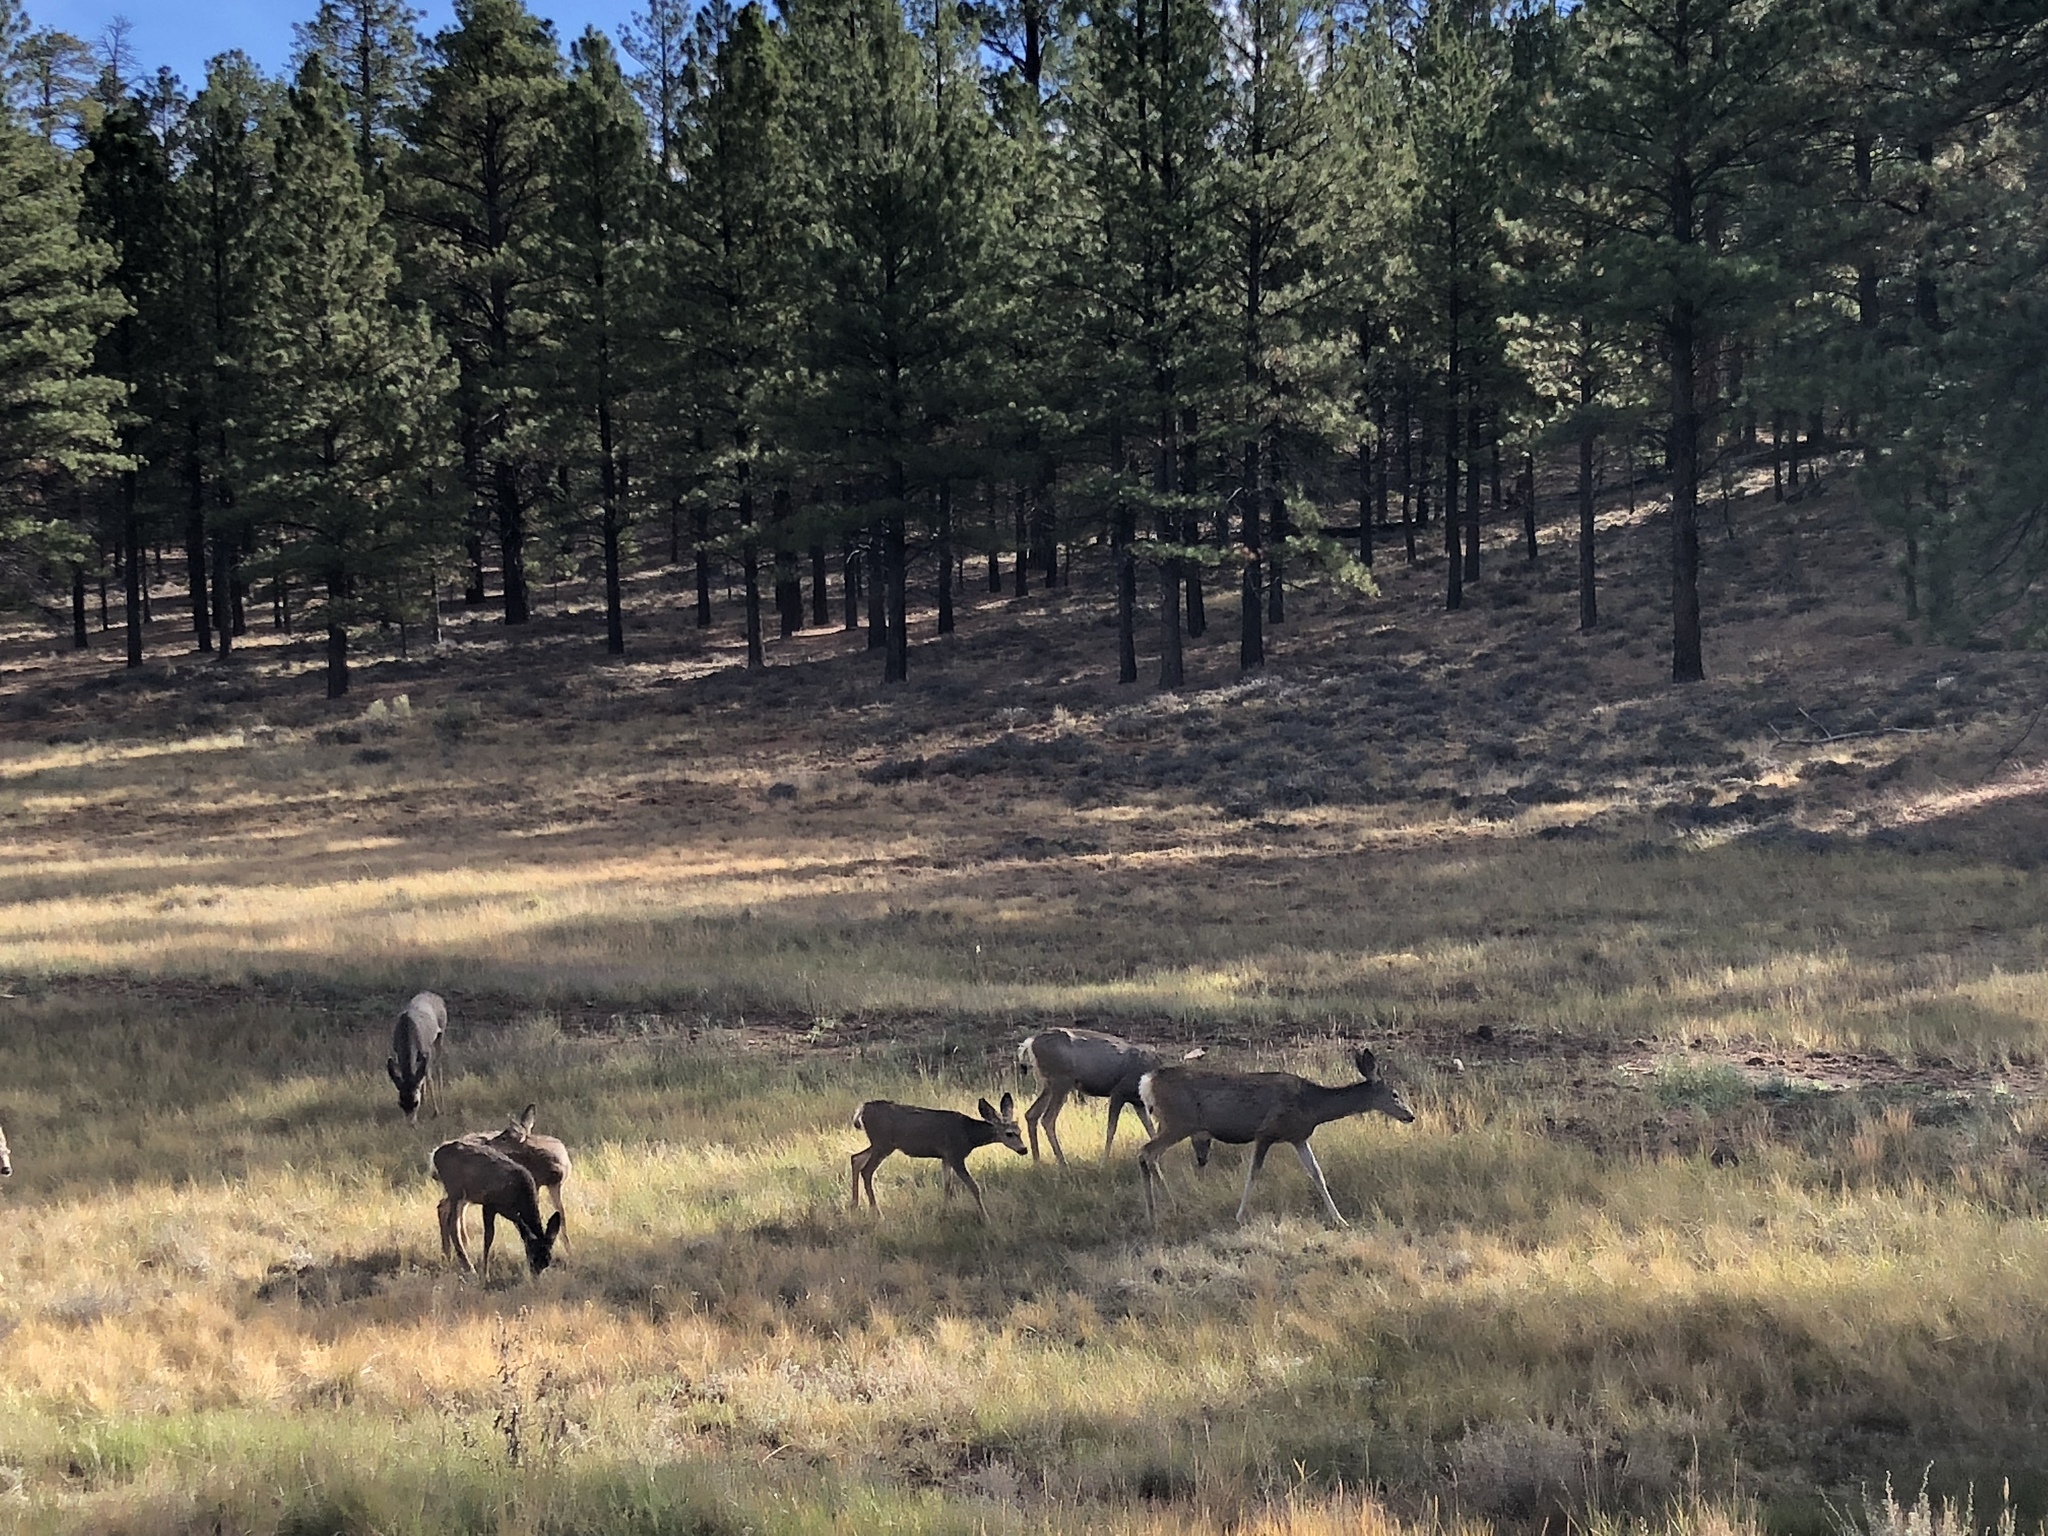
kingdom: Animalia
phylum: Chordata
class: Mammalia
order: Artiodactyla
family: Cervidae
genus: Odocoileus
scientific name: Odocoileus hemionus
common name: Mule deer
